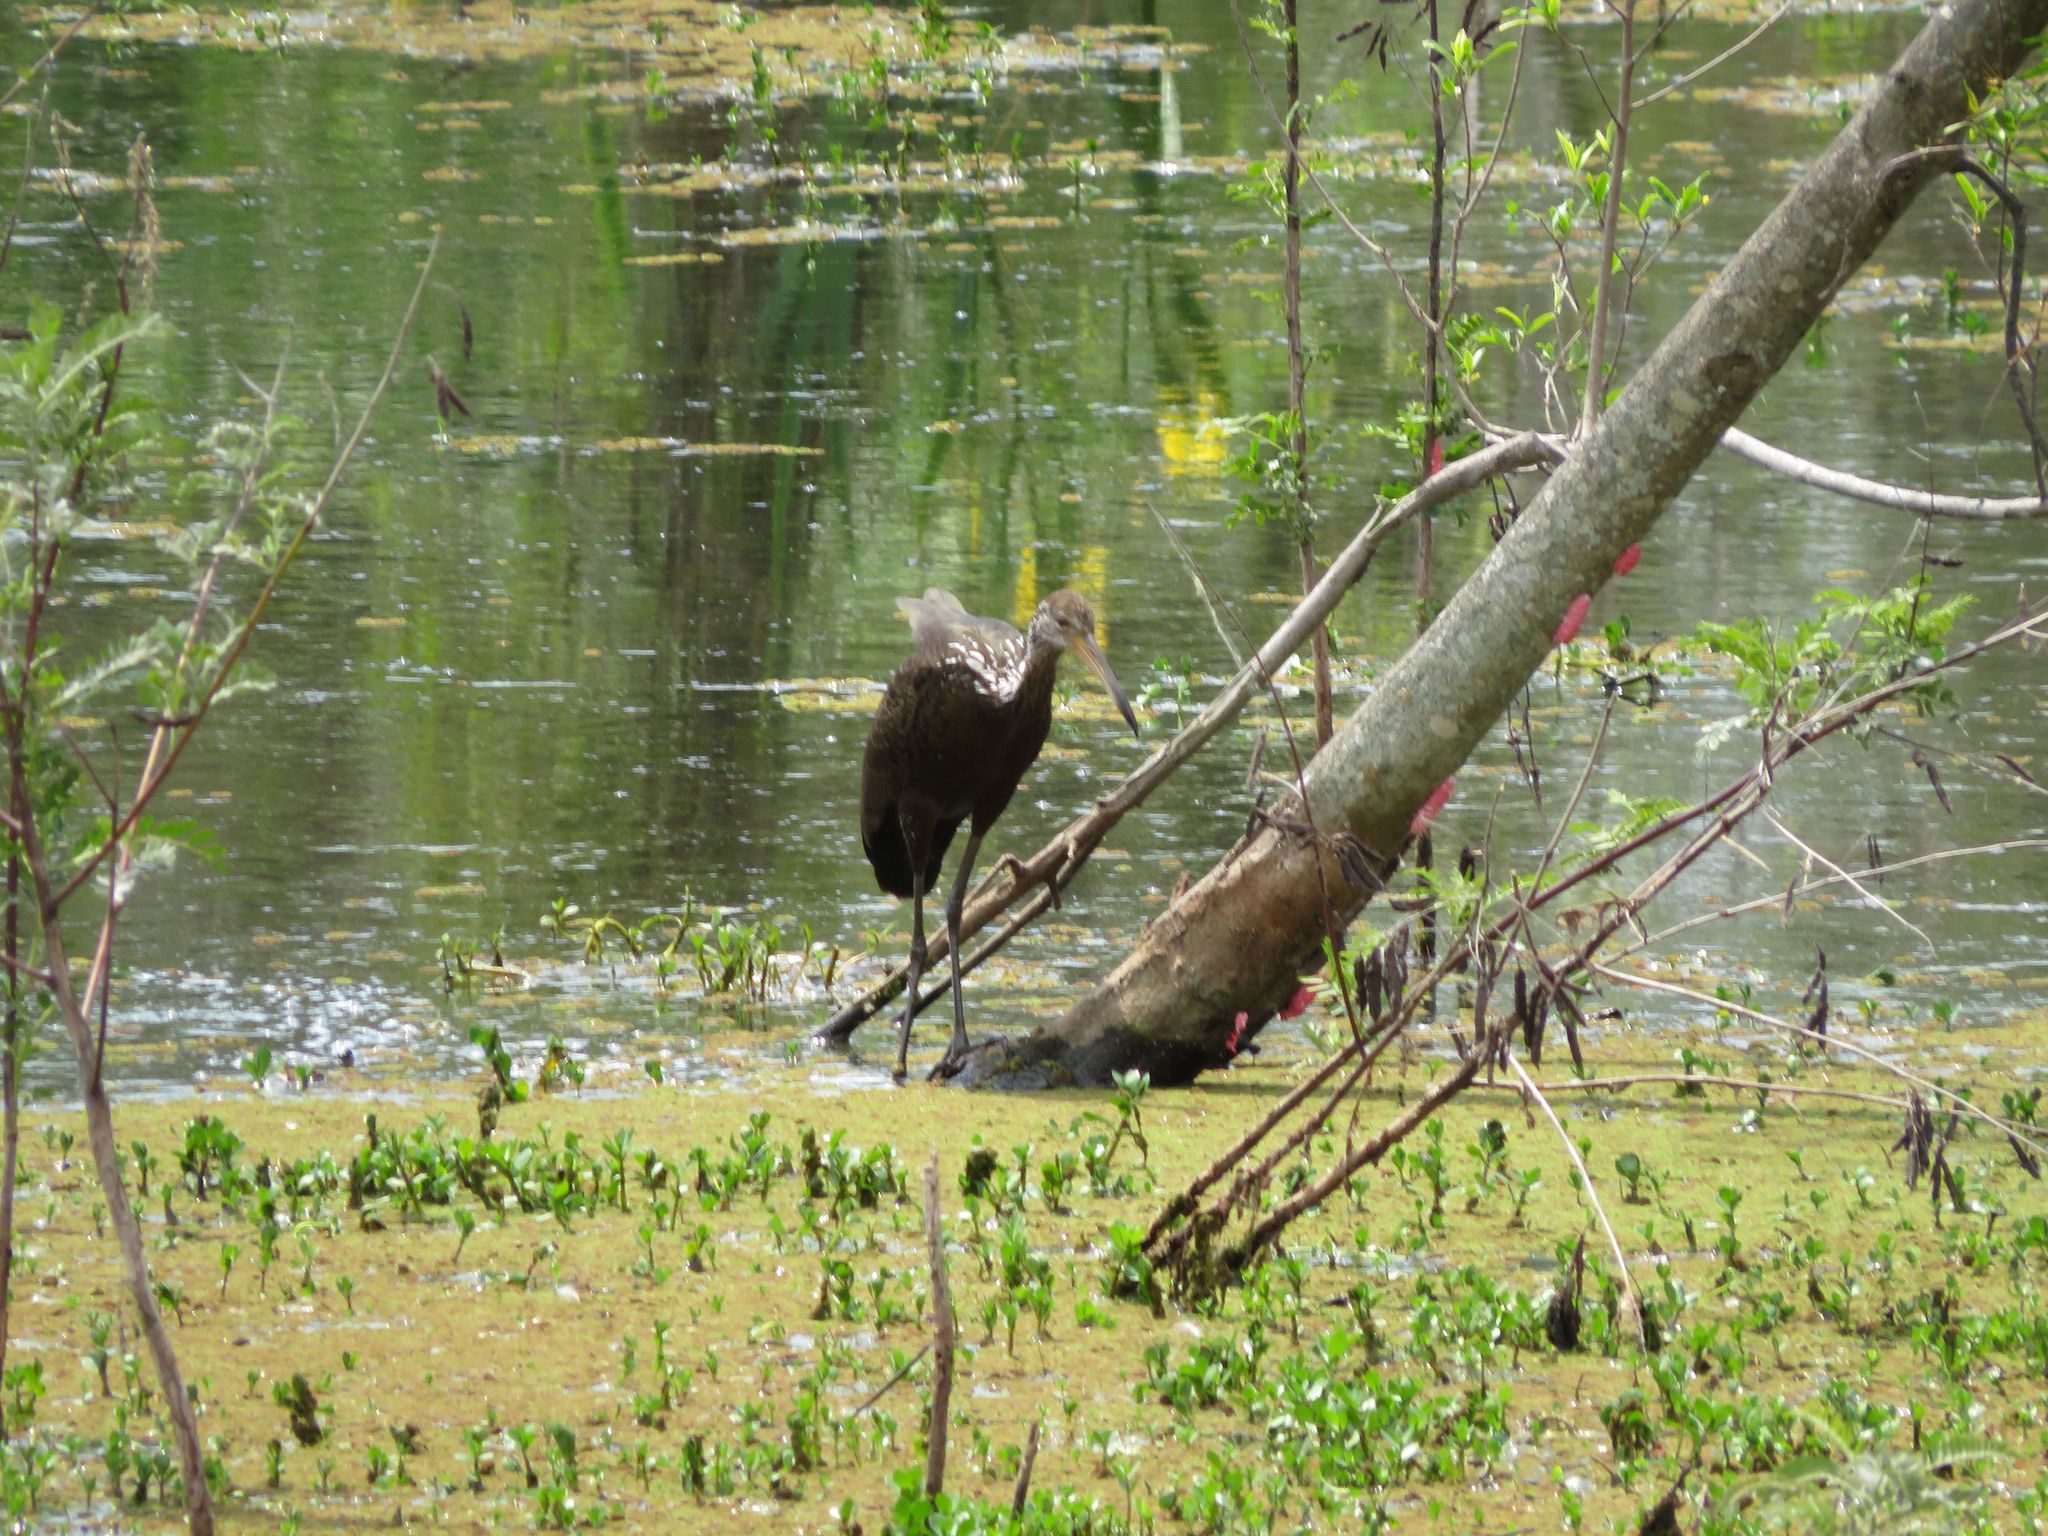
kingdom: Animalia
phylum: Chordata
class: Aves
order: Gruiformes
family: Aramidae
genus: Aramus
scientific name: Aramus guarauna
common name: Limpkin
